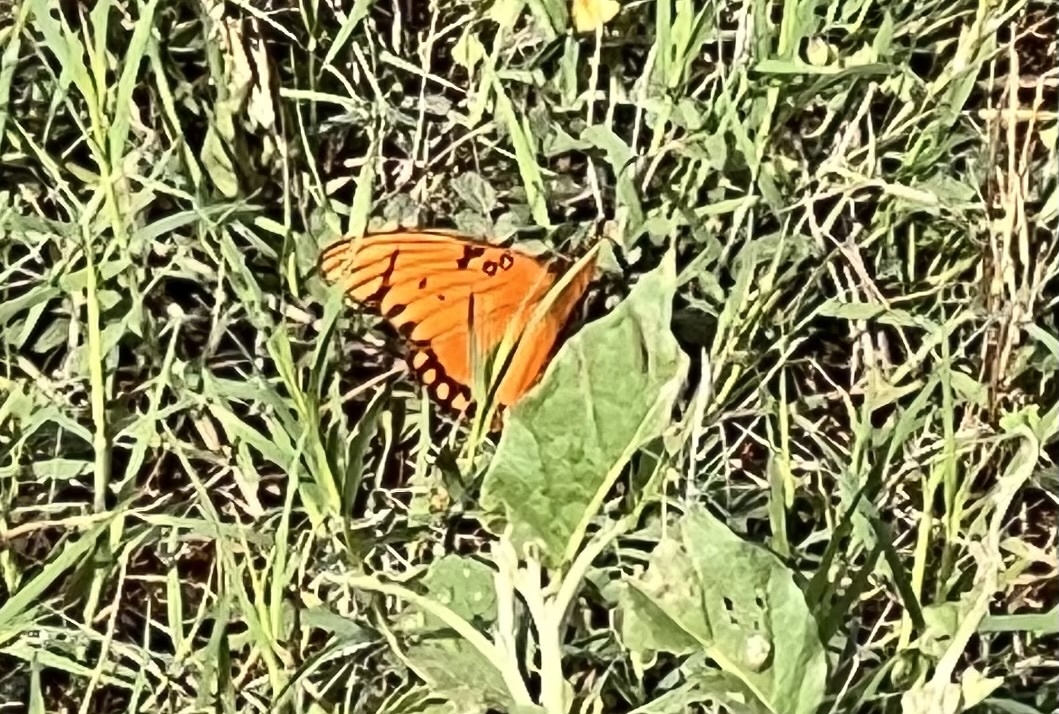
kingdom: Animalia
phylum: Arthropoda
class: Insecta
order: Lepidoptera
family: Nymphalidae
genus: Dione
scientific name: Dione vanillae
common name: Gulf fritillary
